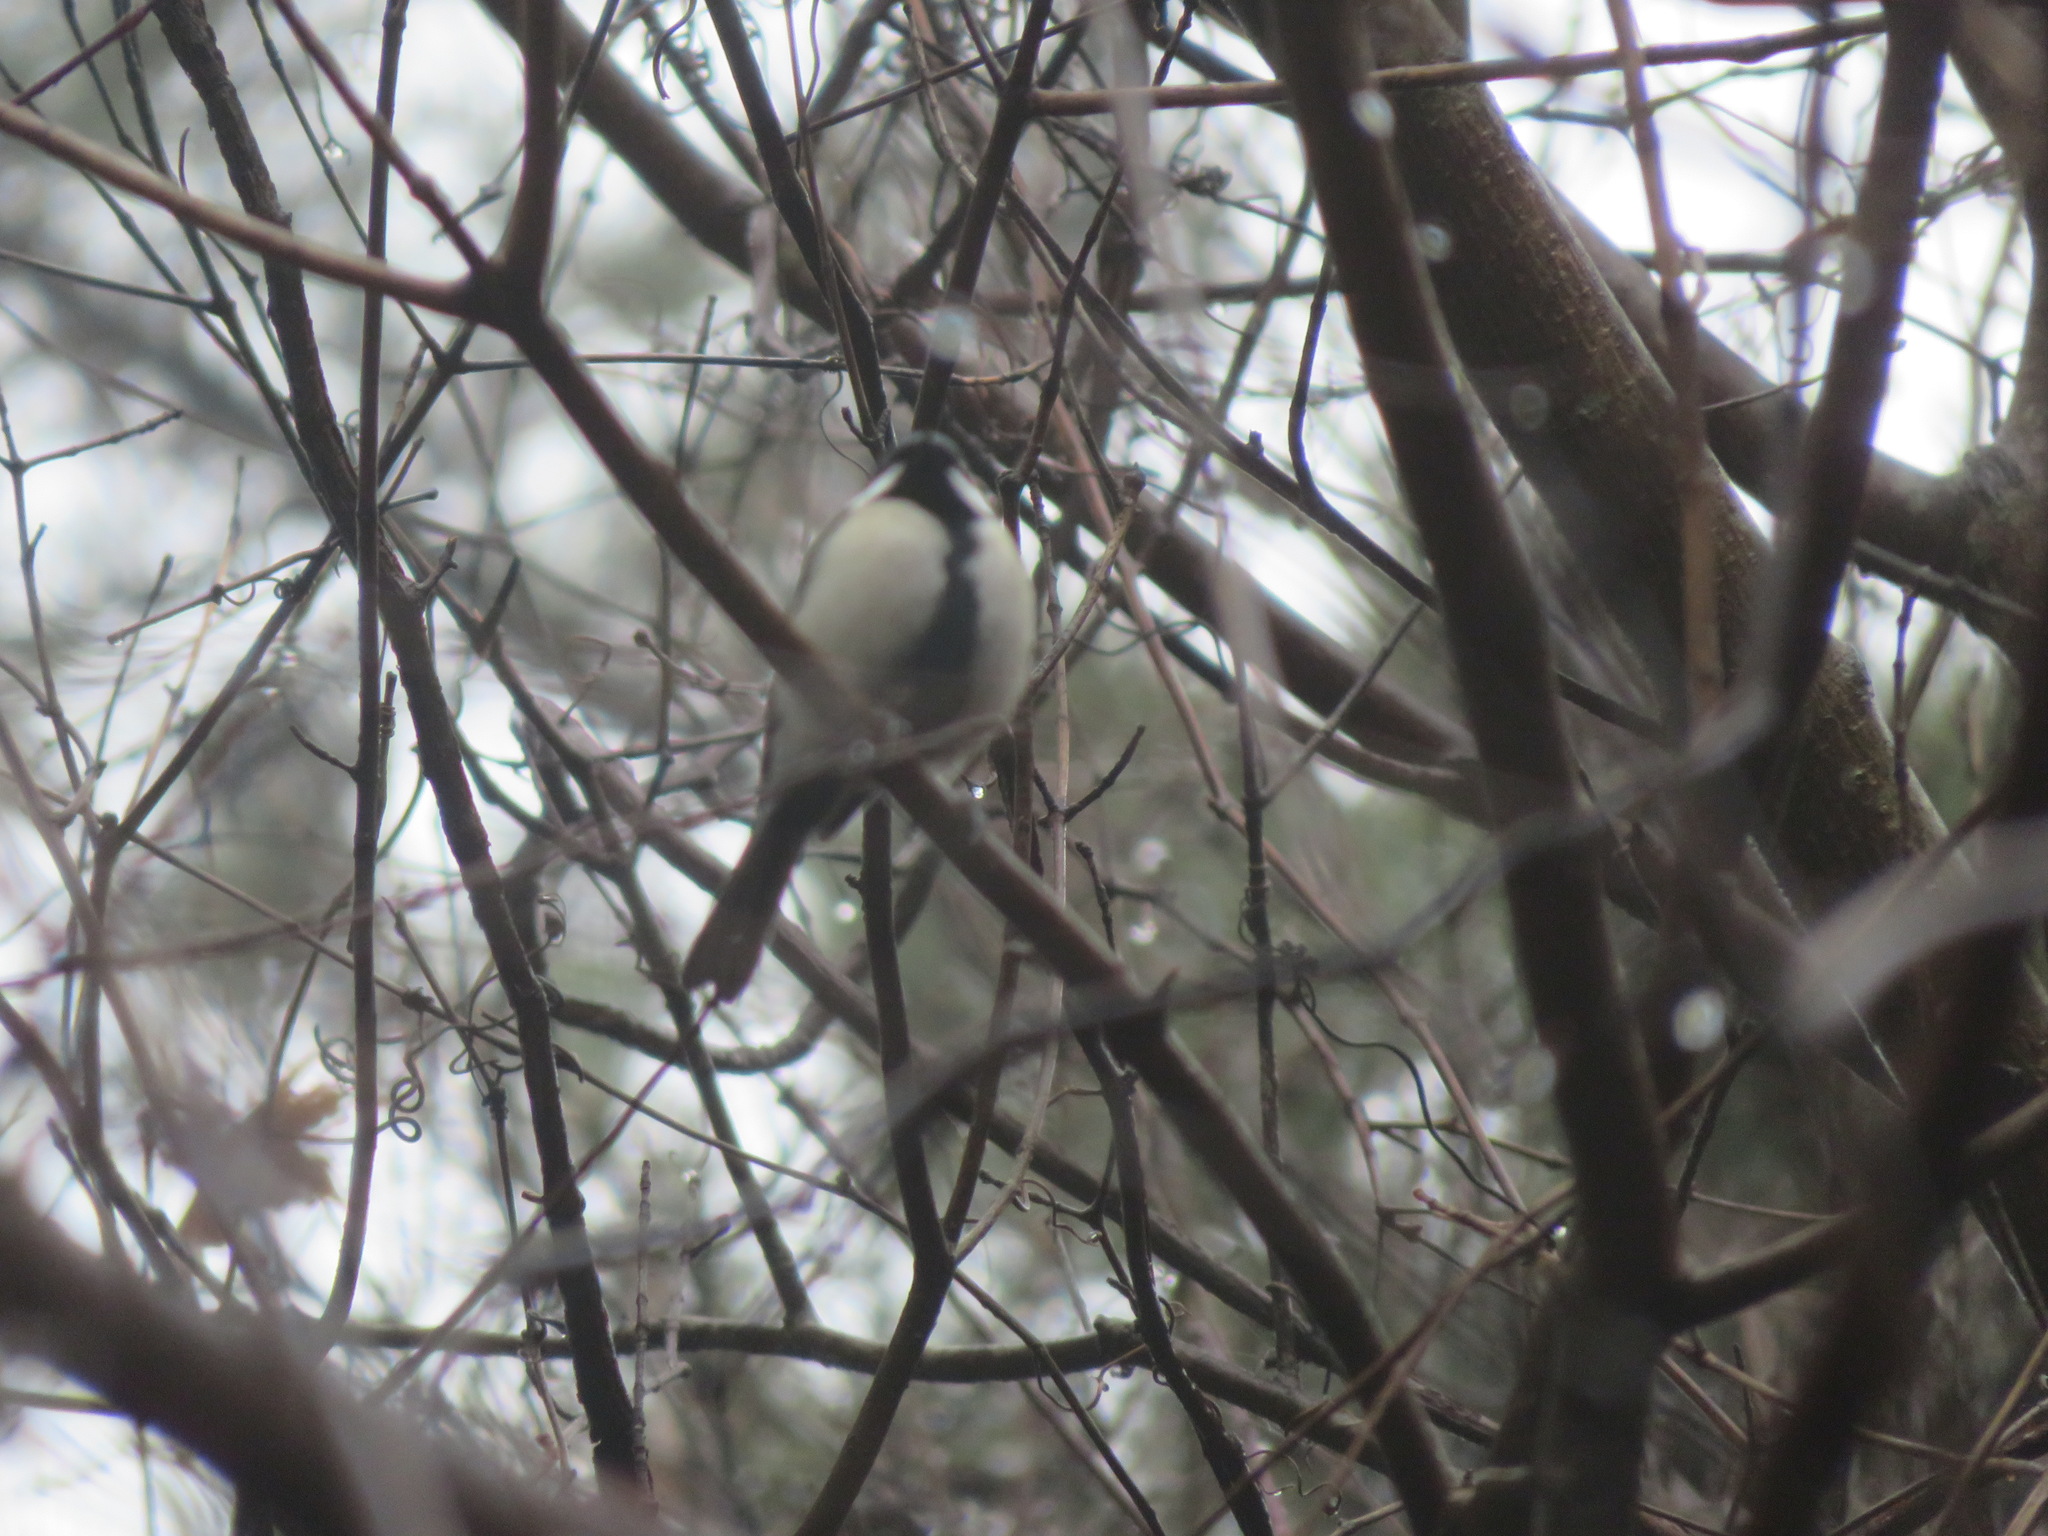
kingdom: Animalia
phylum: Chordata
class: Aves
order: Passeriformes
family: Paridae
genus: Parus
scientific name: Parus minor
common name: Japanese tit
